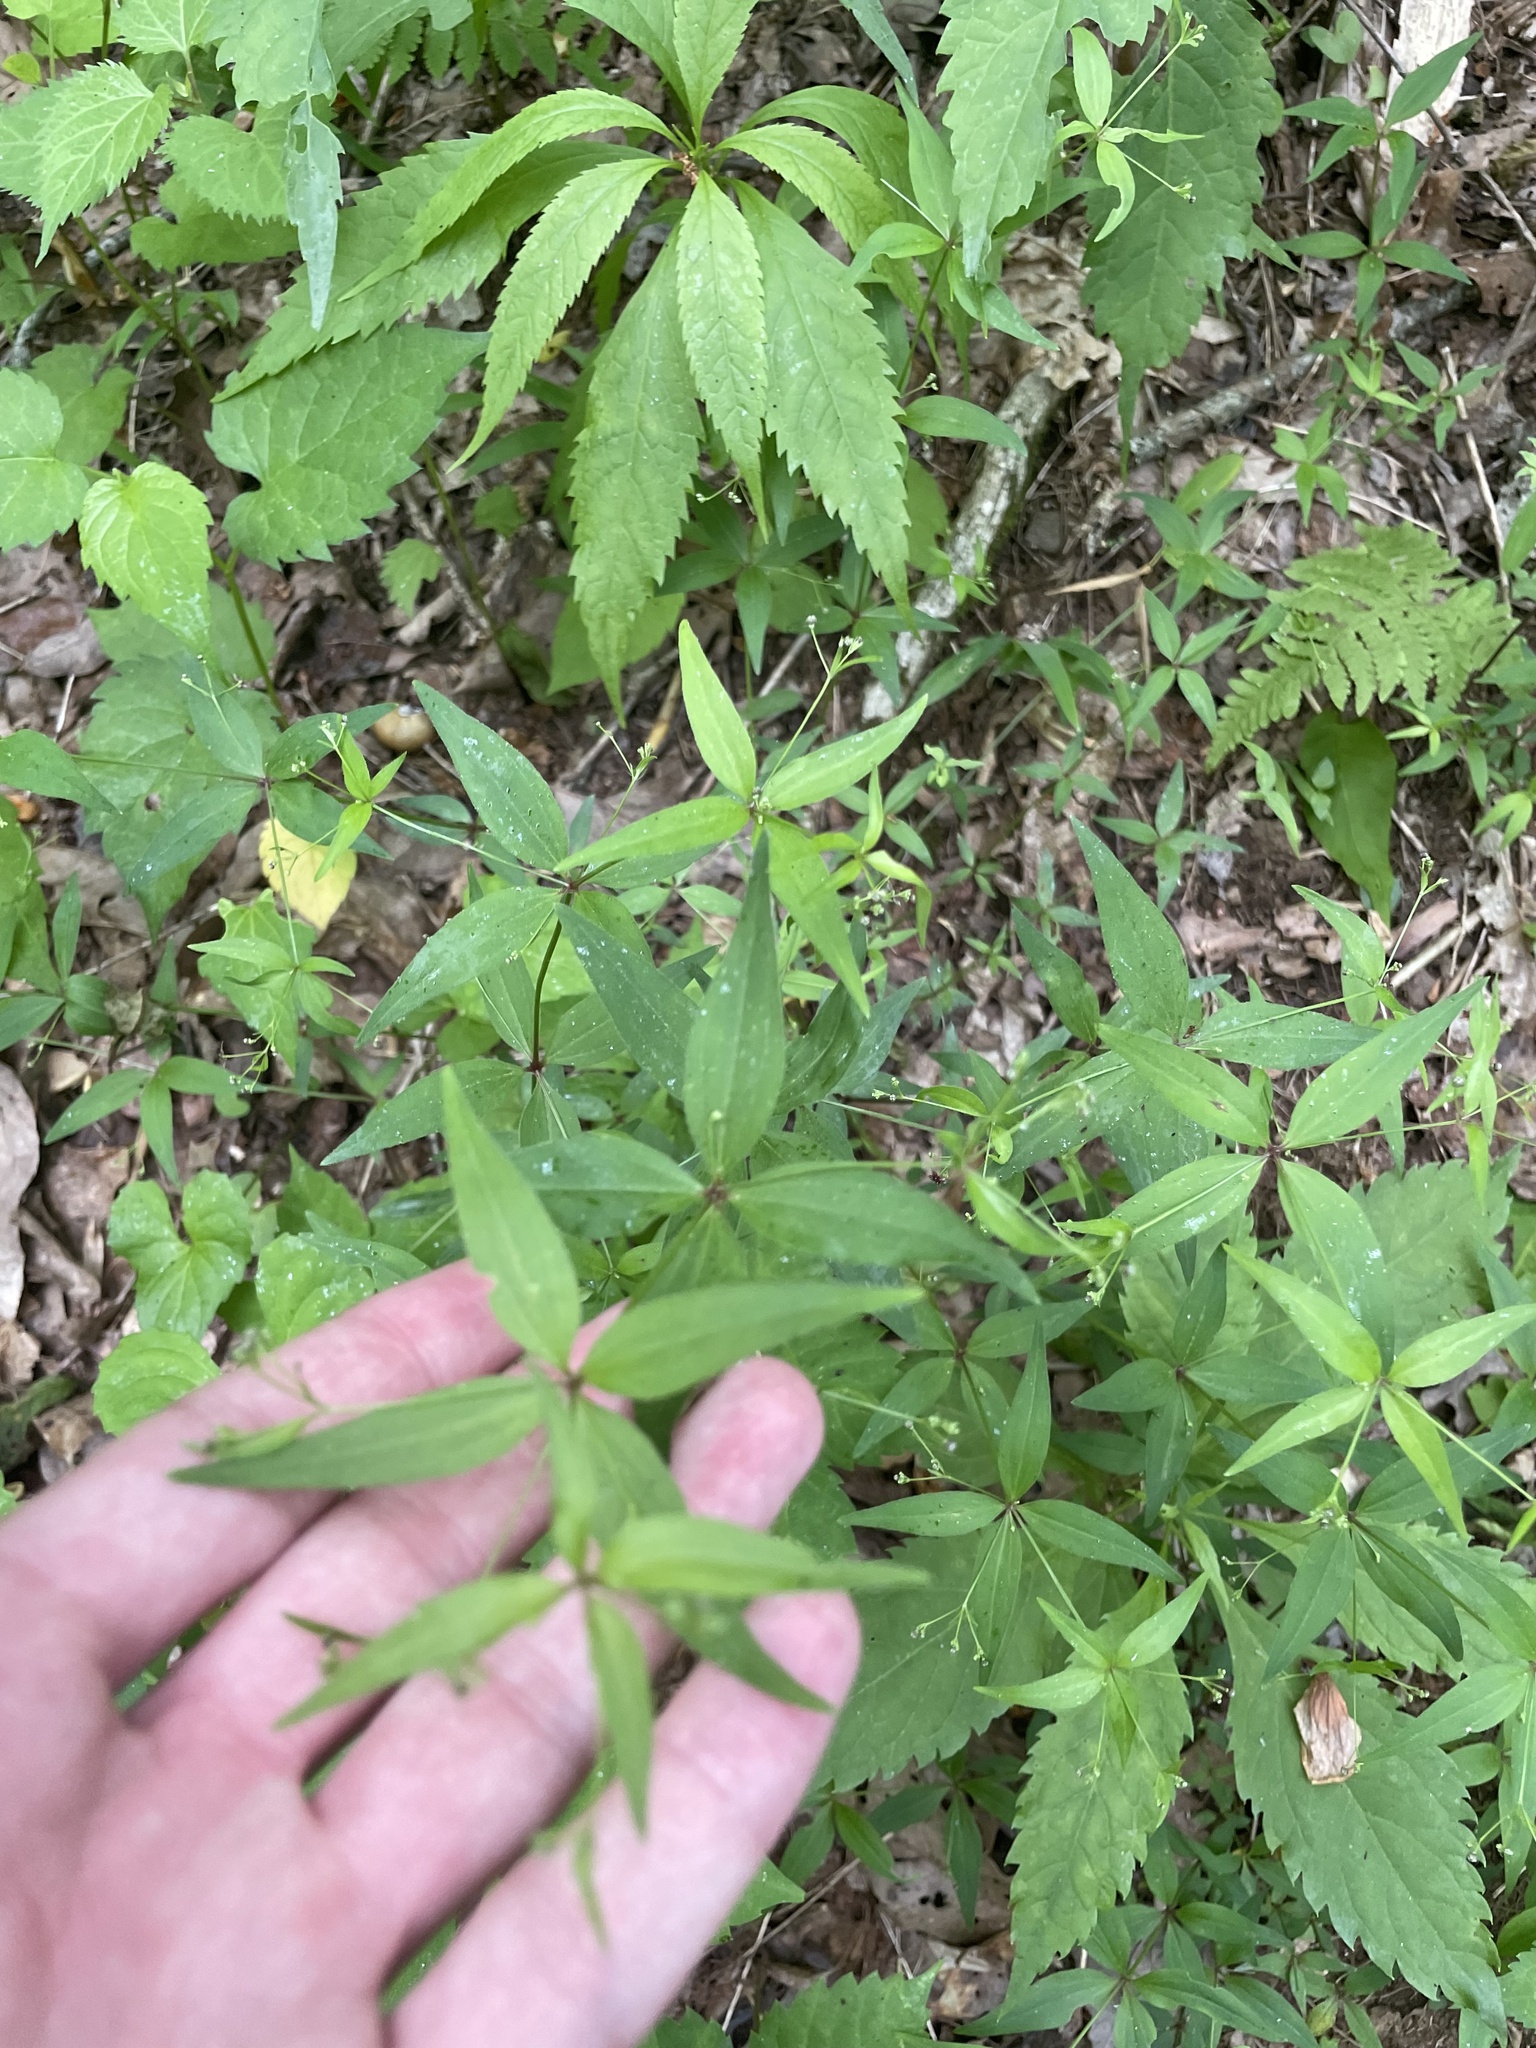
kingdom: Plantae
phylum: Tracheophyta
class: Magnoliopsida
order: Gentianales
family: Rubiaceae
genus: Galium
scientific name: Galium latifolium
